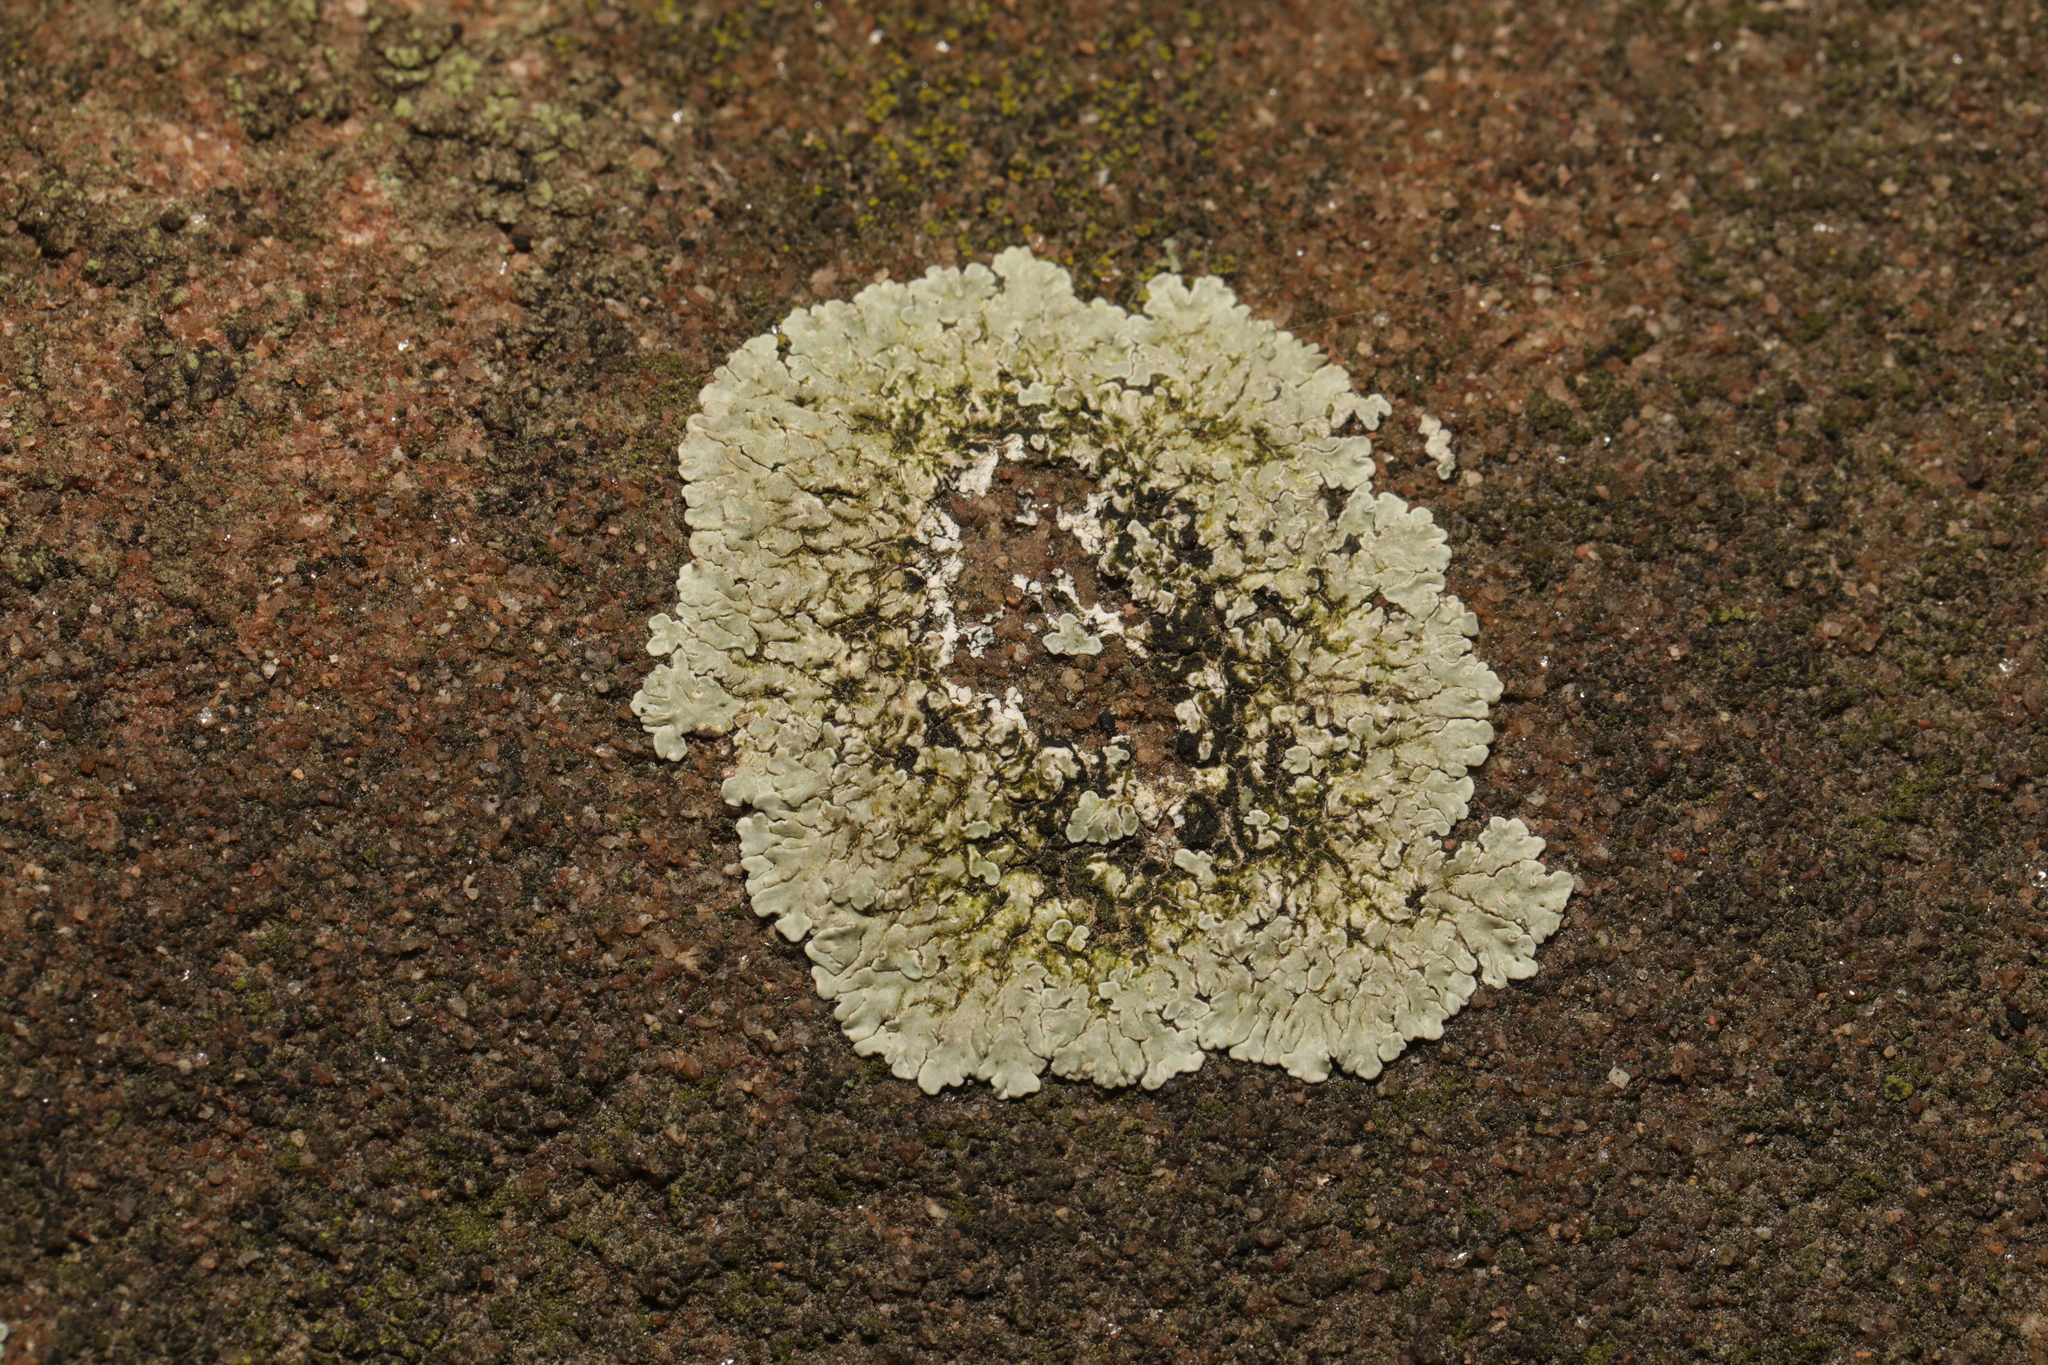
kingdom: Fungi
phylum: Ascomycota
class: Lecanoromycetes
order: Lecanorales
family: Lecanoraceae
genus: Protoparmeliopsis
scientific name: Protoparmeliopsis muralis
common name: Stonewall rim lichen
